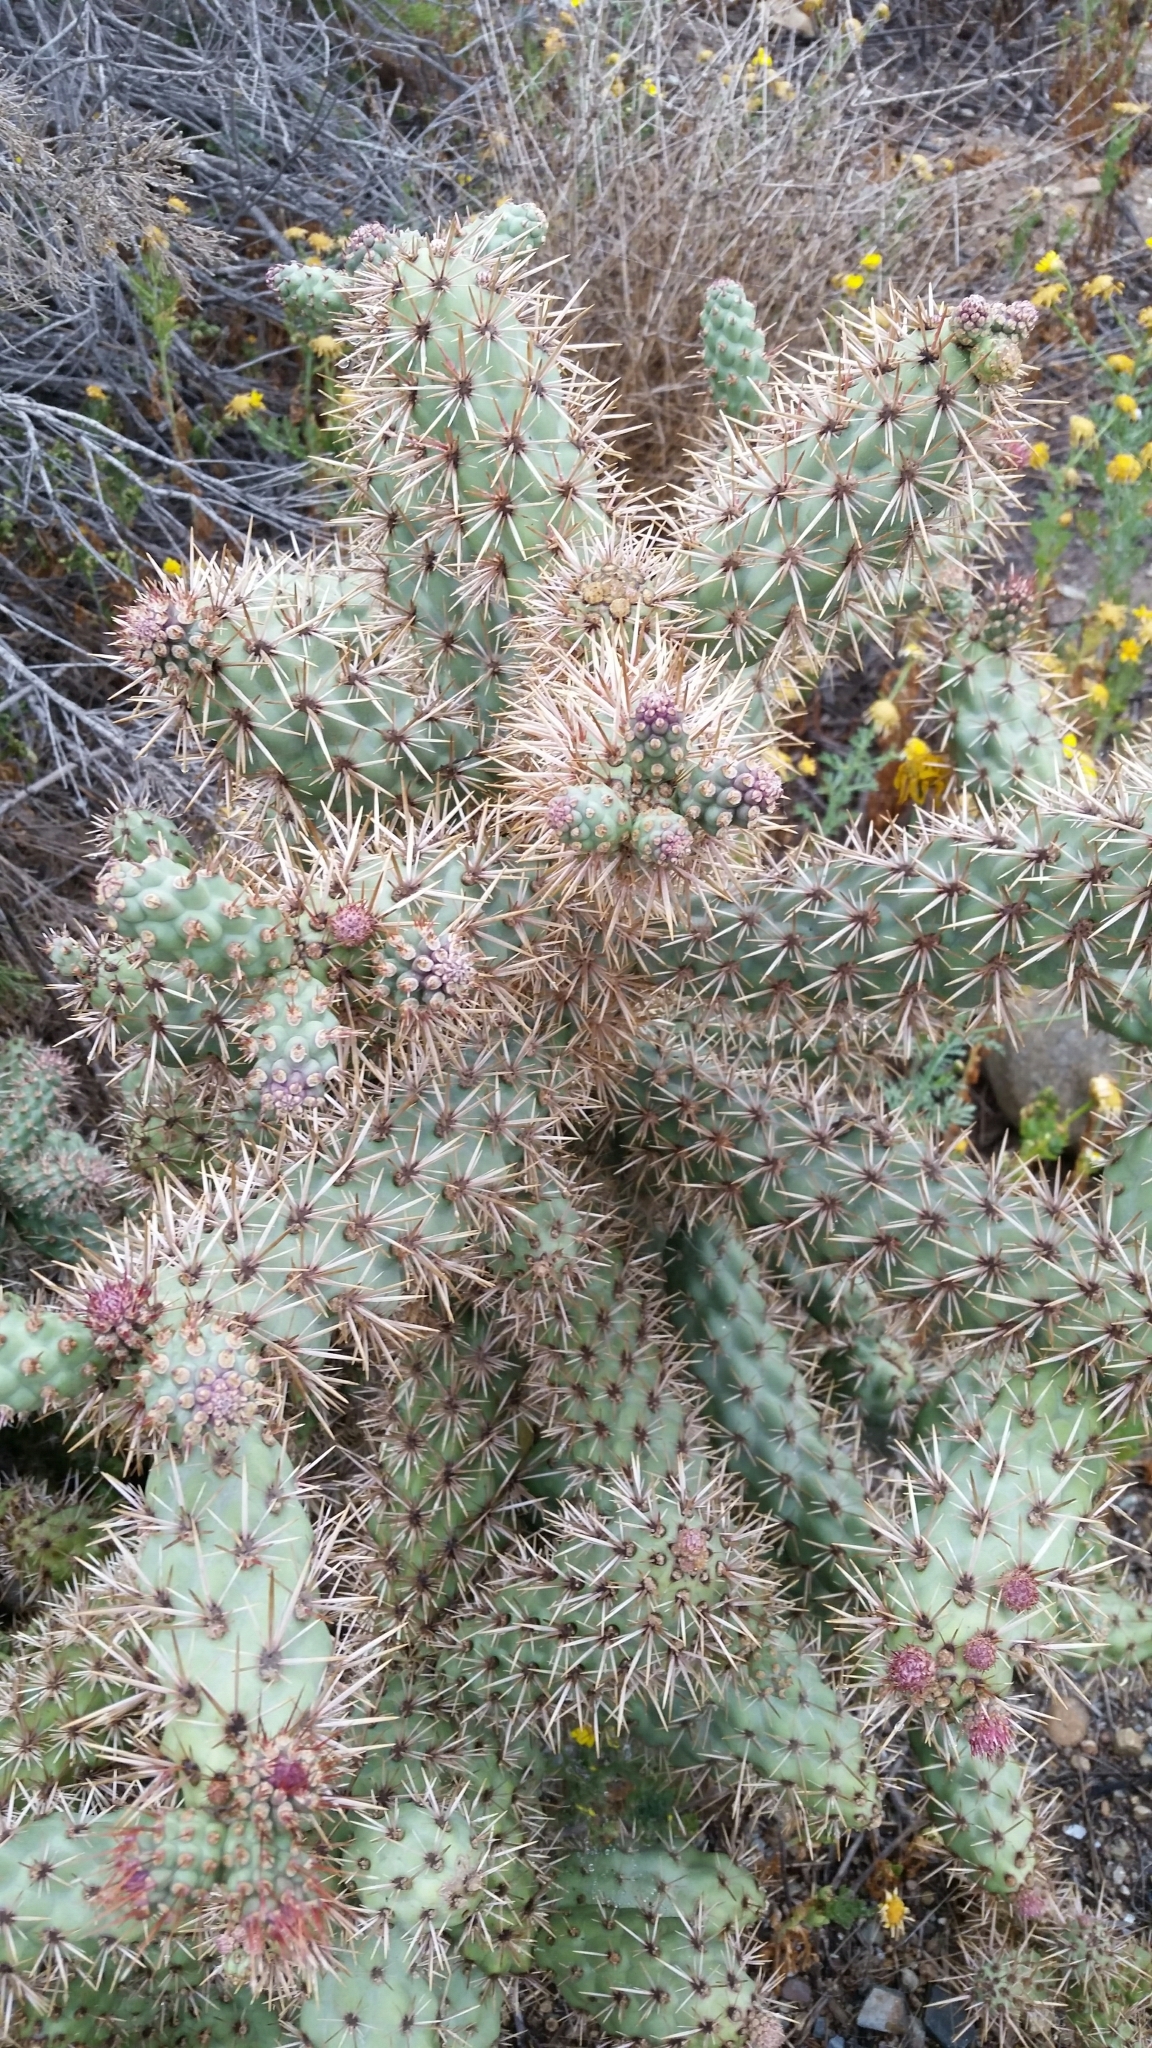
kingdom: Plantae
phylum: Tracheophyta
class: Magnoliopsida
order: Caryophyllales
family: Cactaceae
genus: Cylindropuntia
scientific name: Cylindropuntia prolifera
